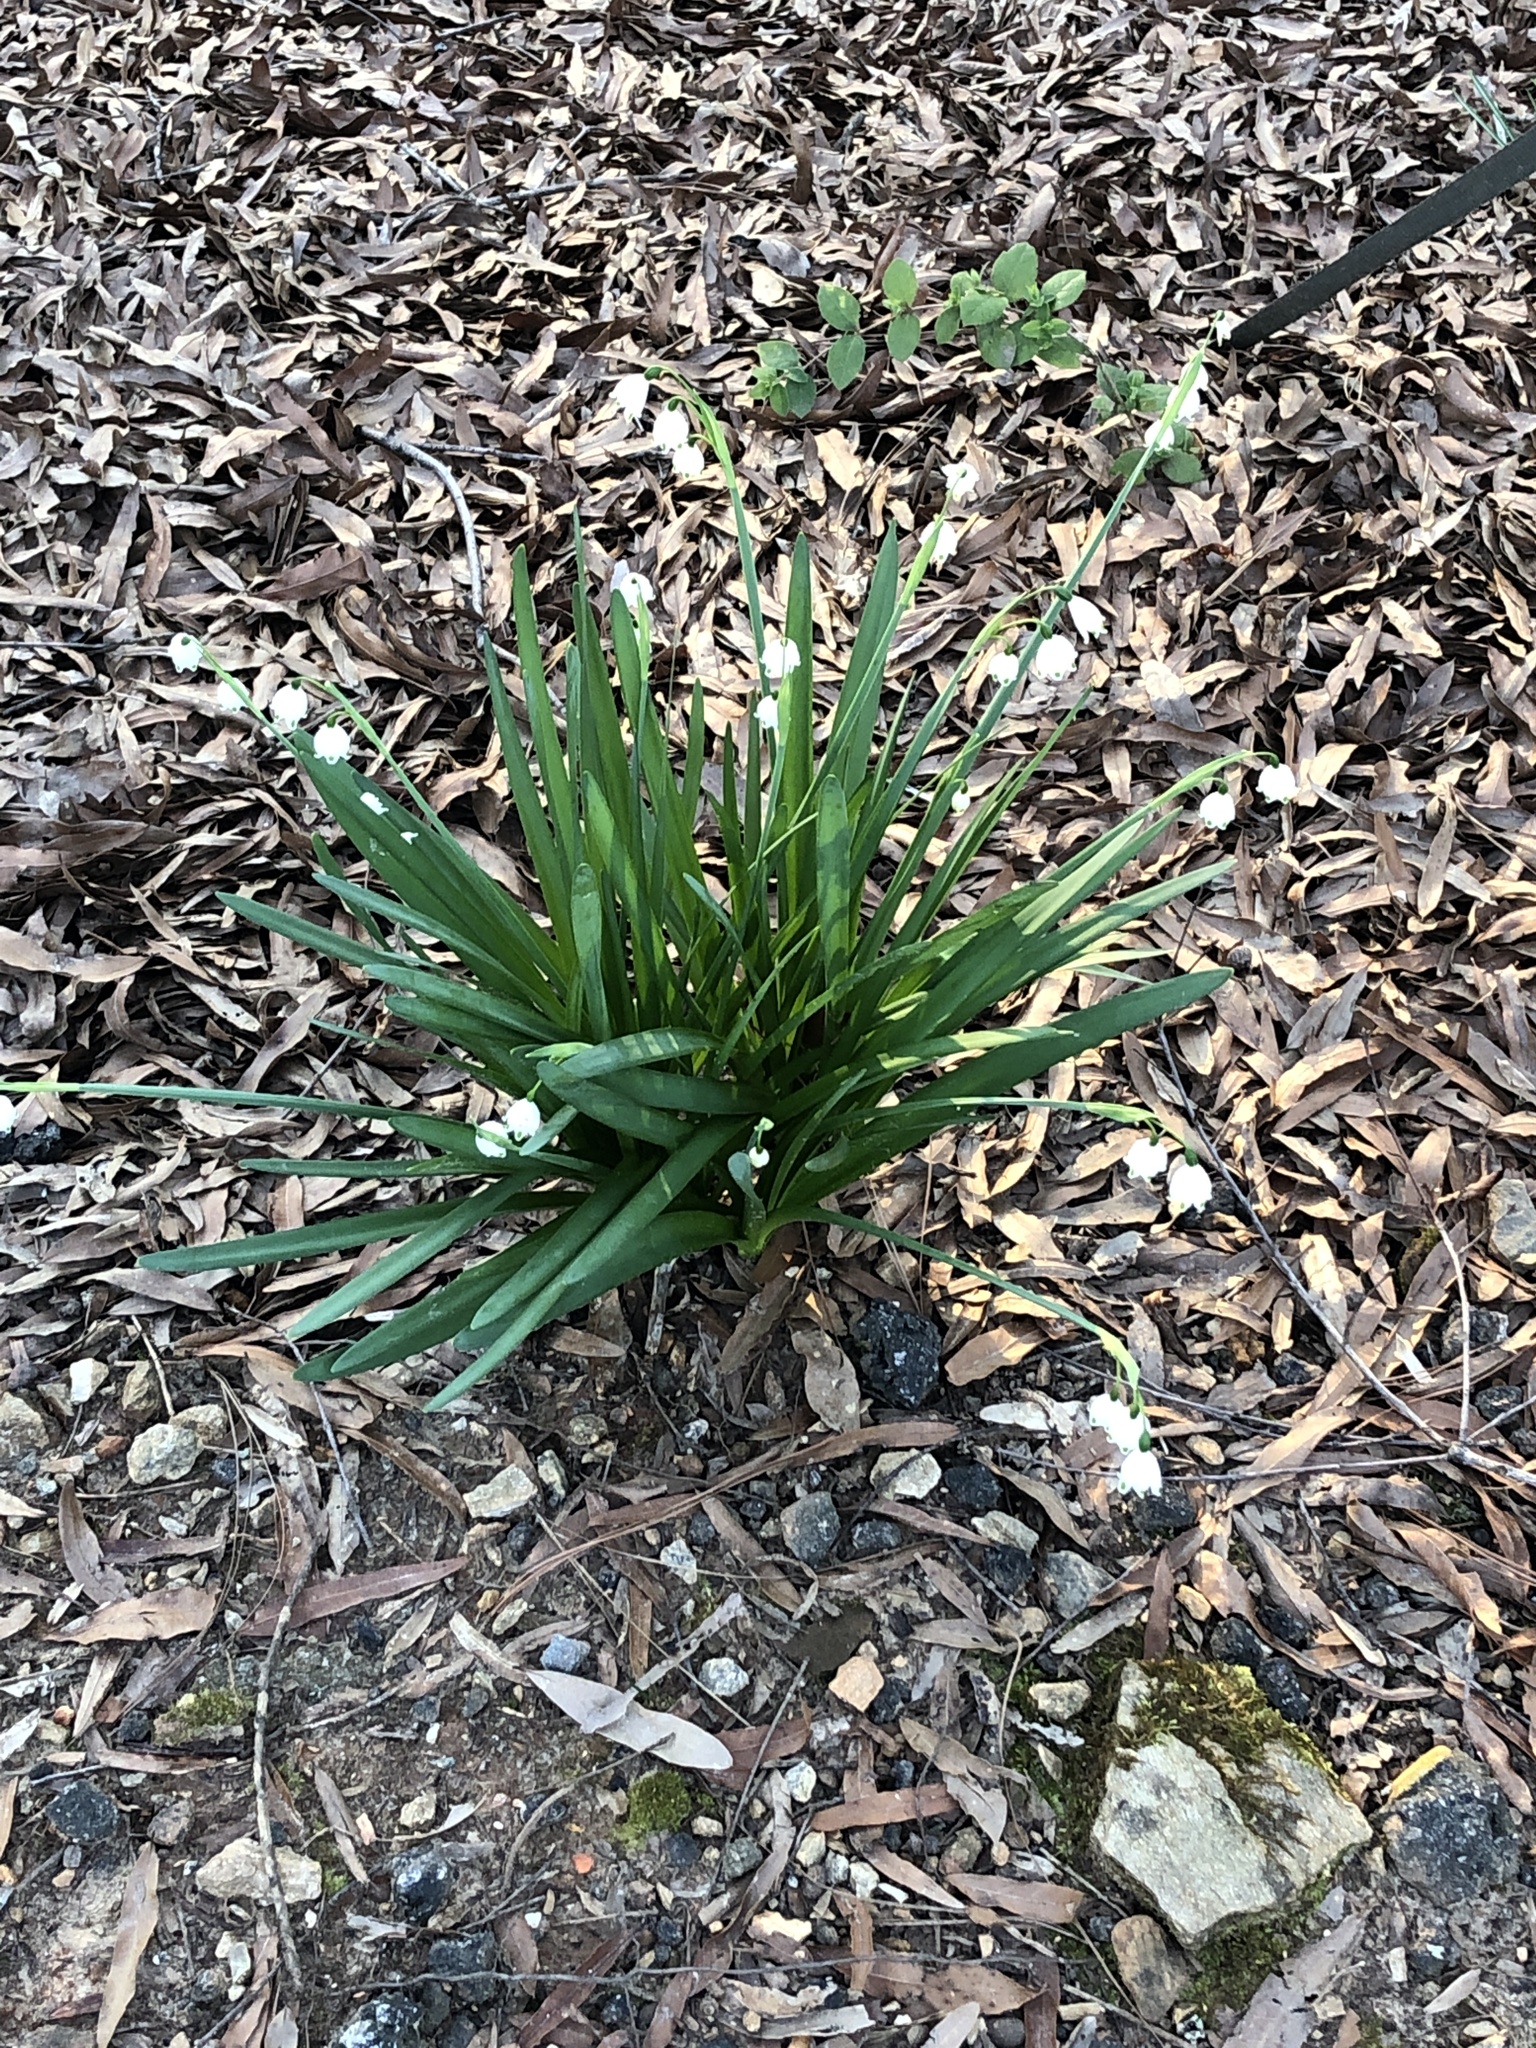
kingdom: Plantae
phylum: Tracheophyta
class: Liliopsida
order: Asparagales
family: Amaryllidaceae
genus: Leucojum
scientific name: Leucojum aestivum
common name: Summer snowflake
